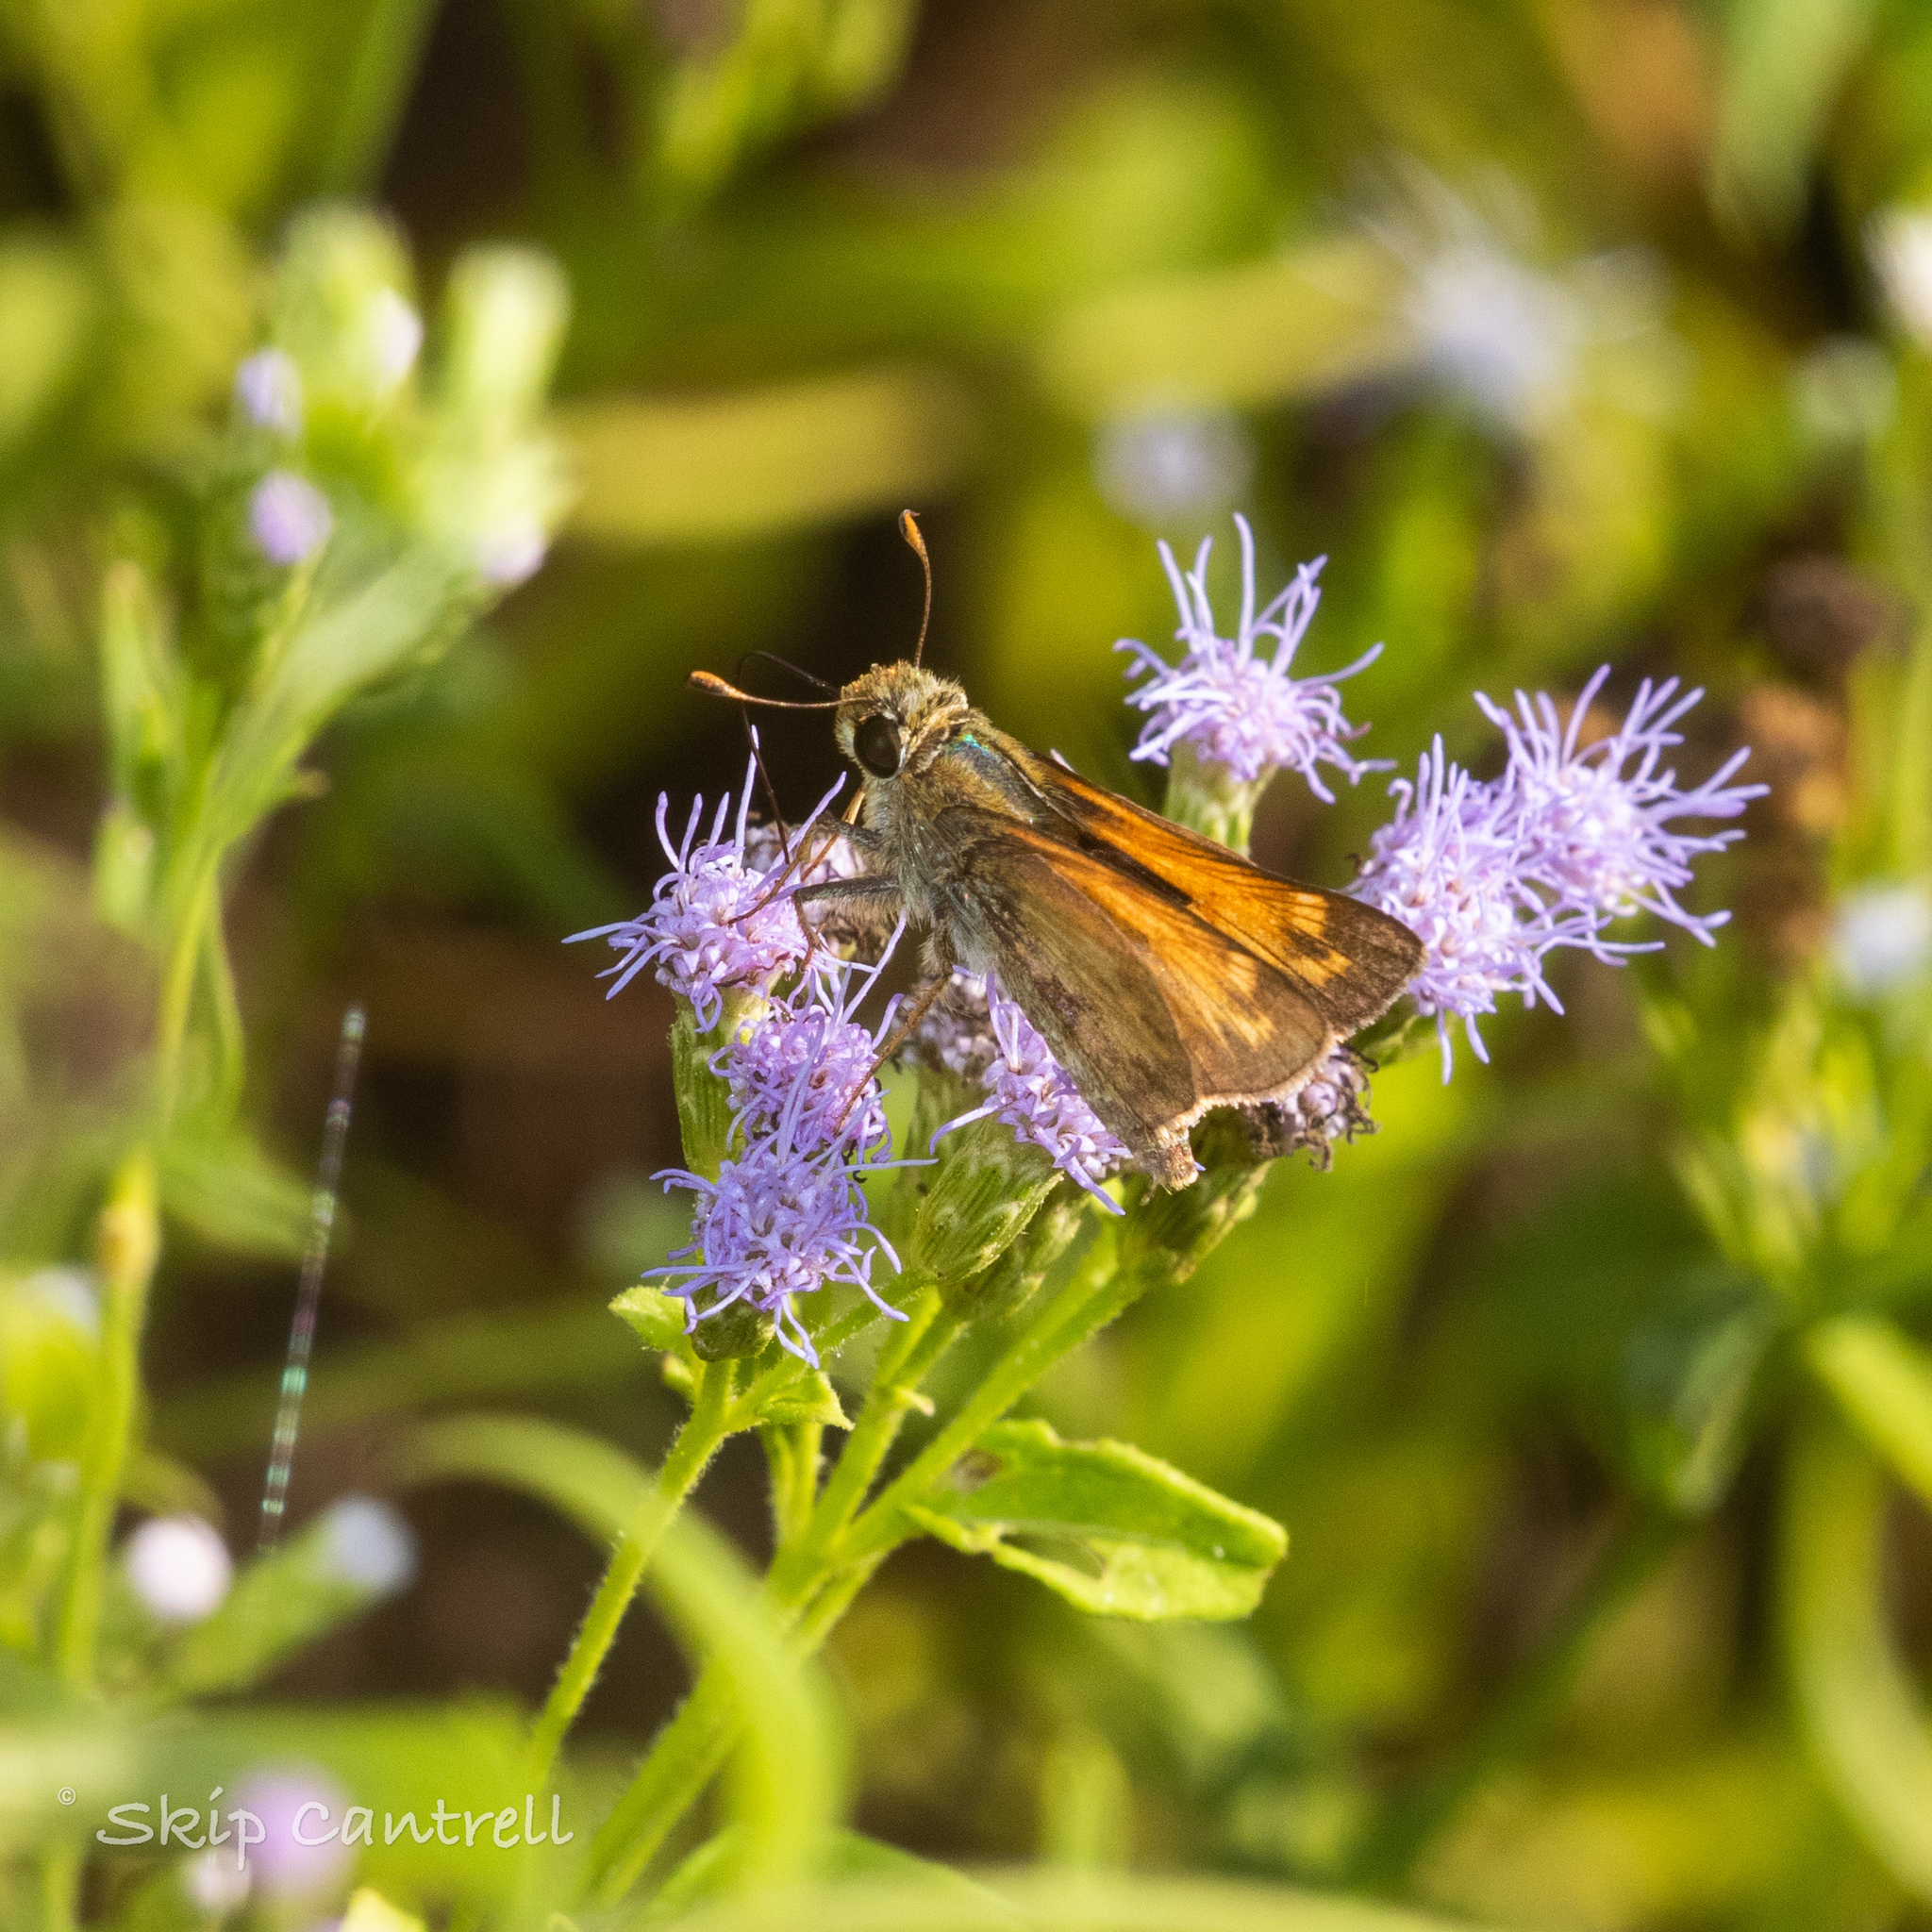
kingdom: Animalia
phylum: Arthropoda
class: Insecta
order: Lepidoptera
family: Hesperiidae
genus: Atalopedes
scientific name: Atalopedes
